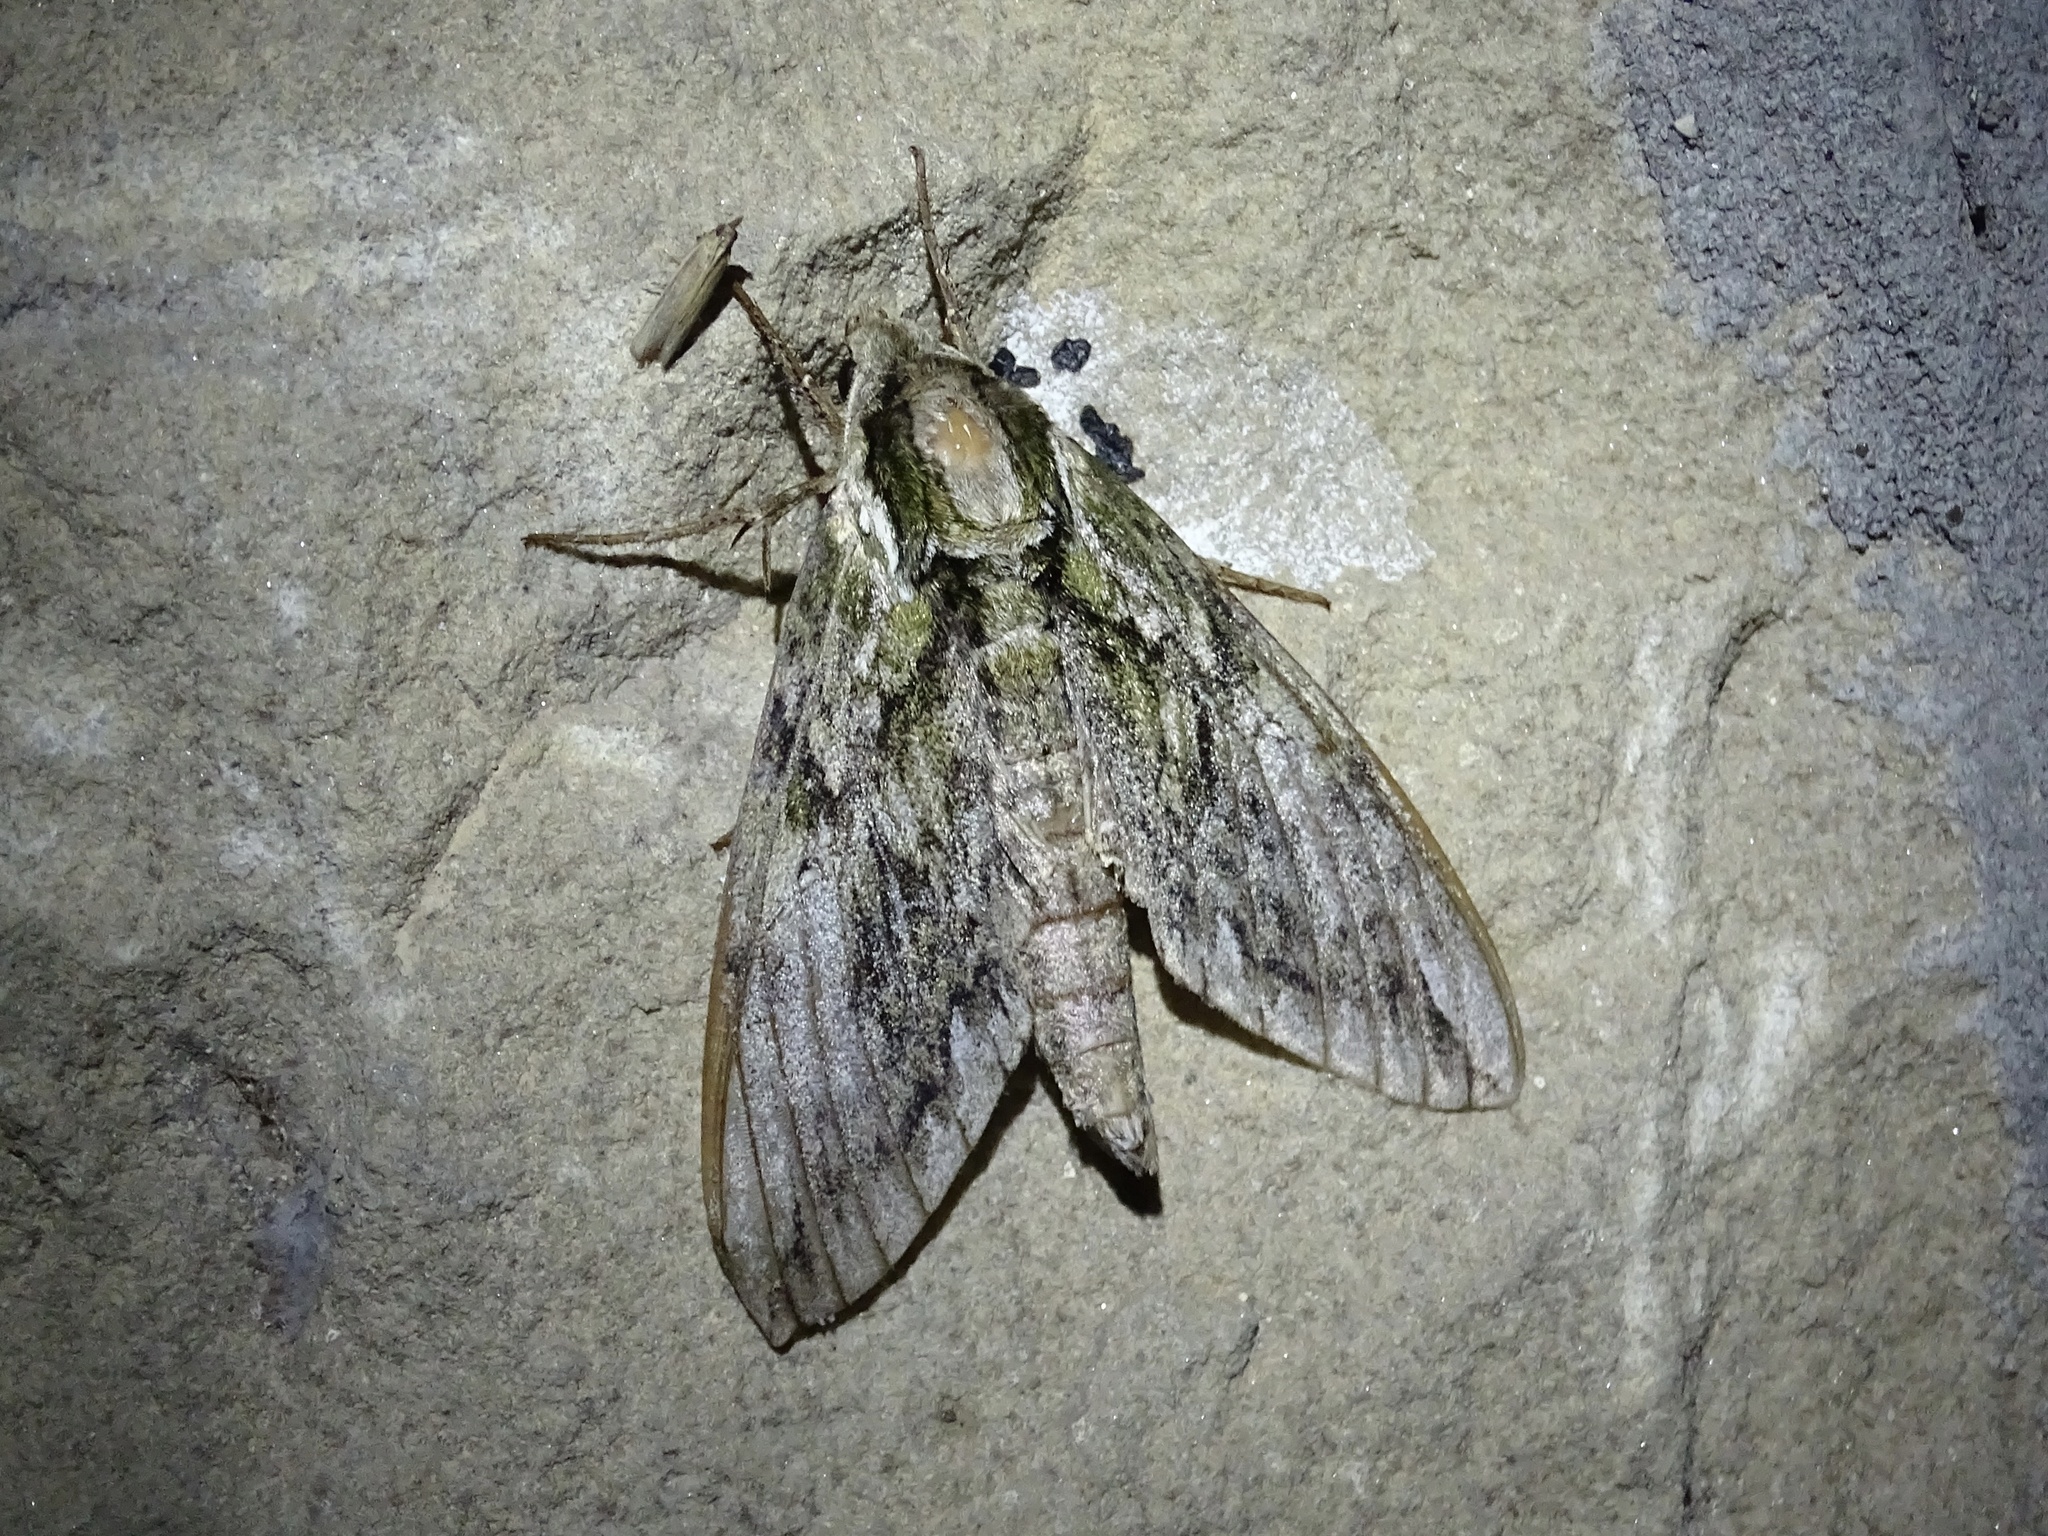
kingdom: Animalia
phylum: Arthropoda
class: Insecta
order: Lepidoptera
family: Sphingidae
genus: Ceratomia
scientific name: Ceratomia hageni
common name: Hagen's sphinx
